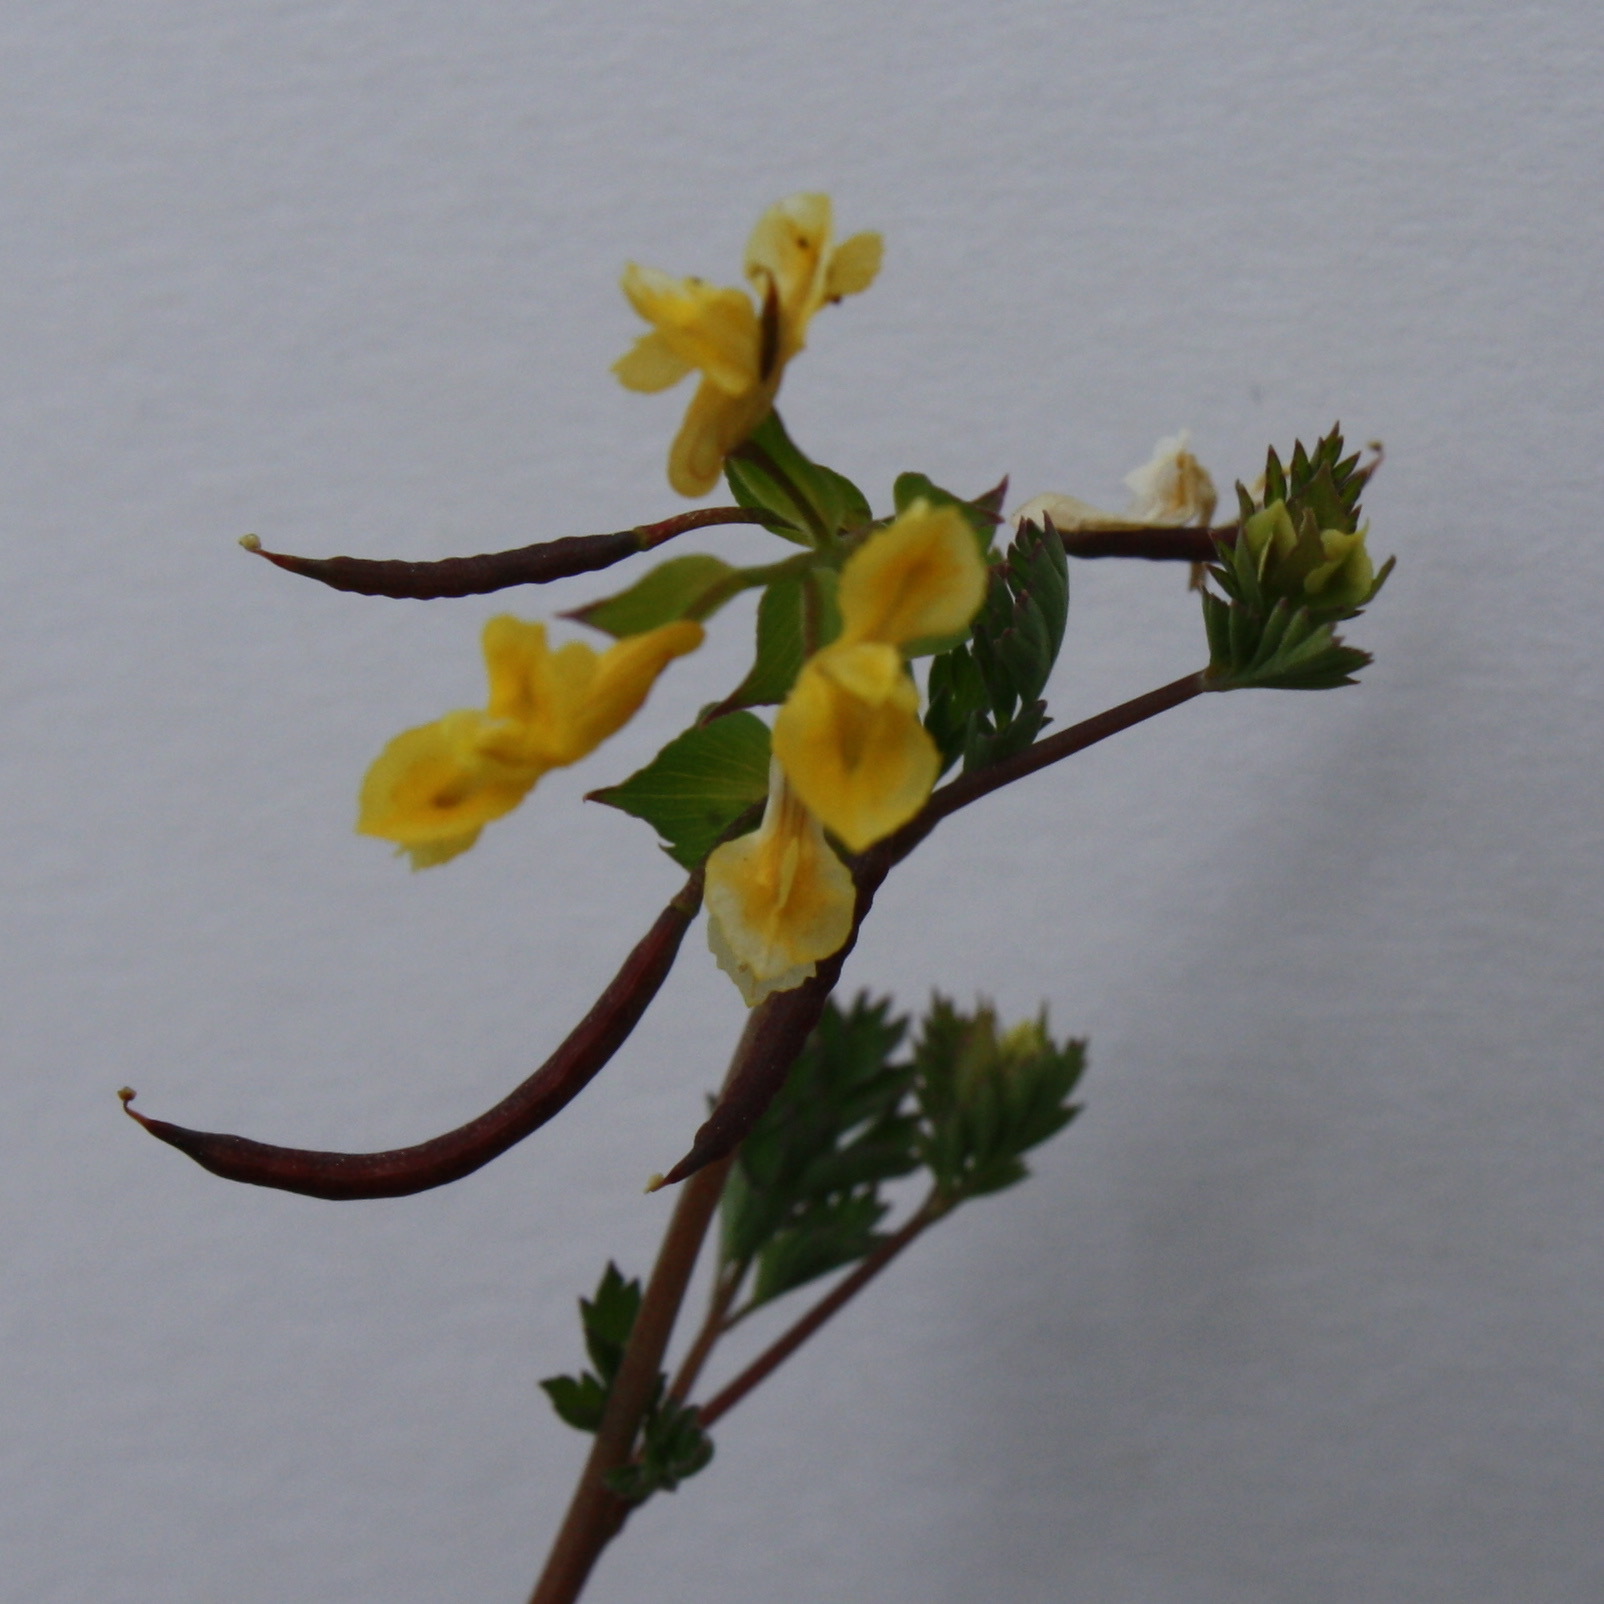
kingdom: Plantae
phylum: Tracheophyta
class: Magnoliopsida
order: Ranunculales
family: Papaveraceae
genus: Corydalis
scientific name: Corydalis flavula
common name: Yellow corydalis
